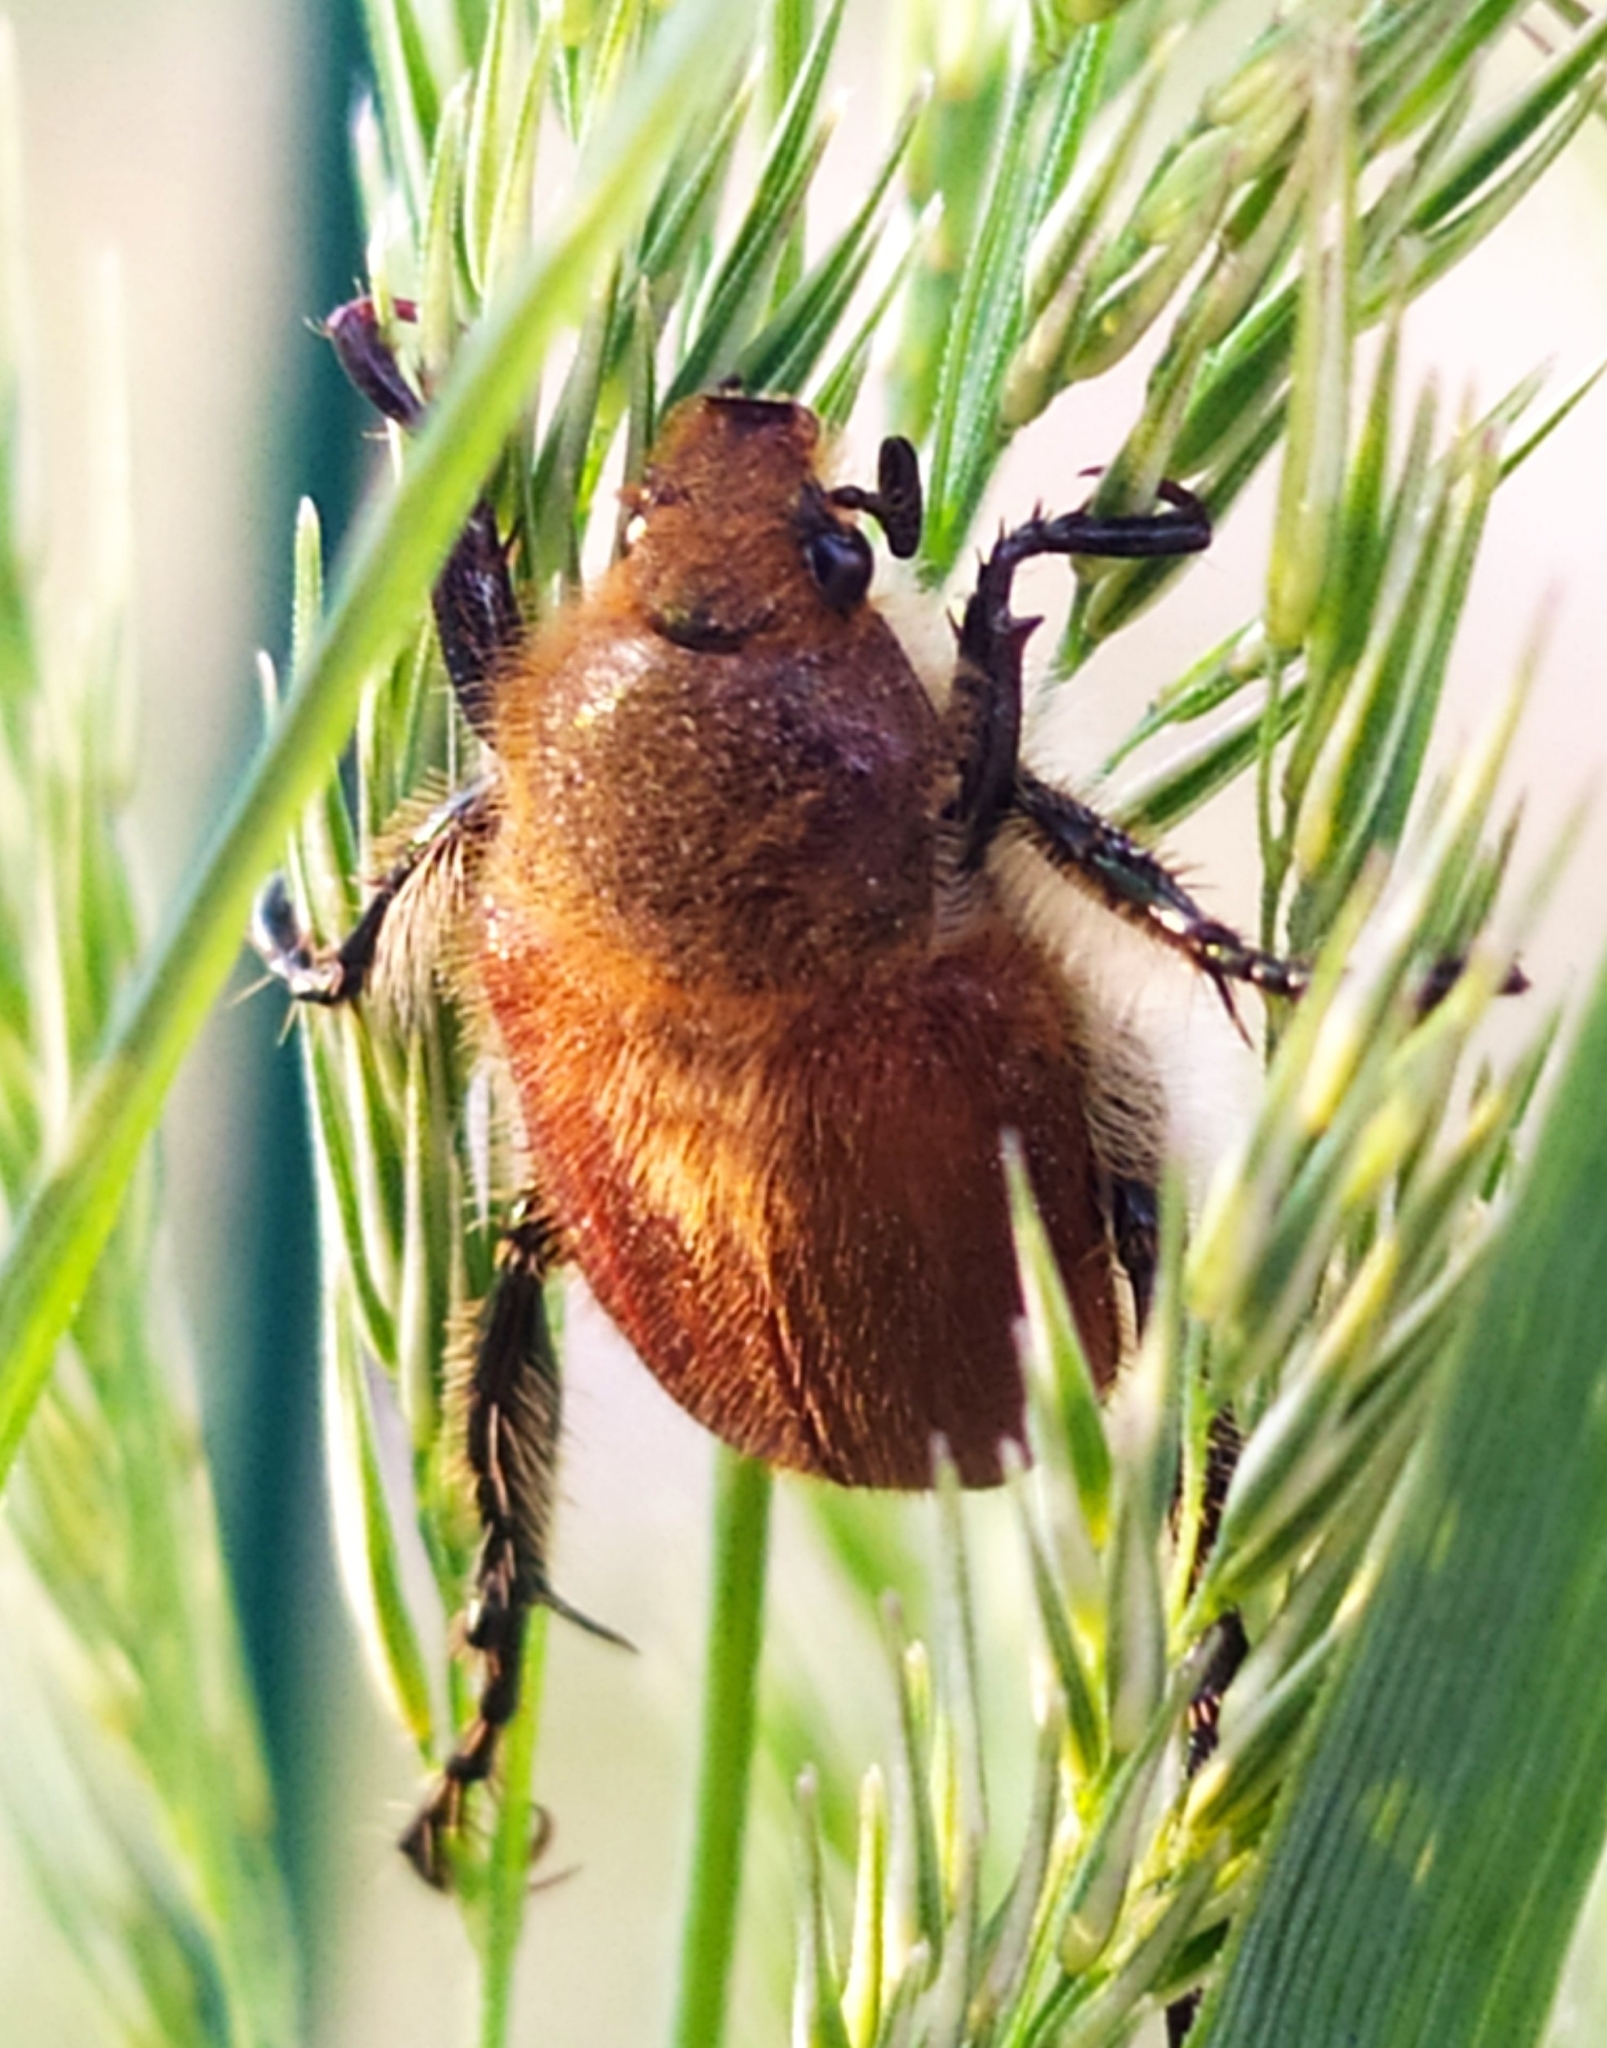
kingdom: Animalia
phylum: Arthropoda
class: Insecta
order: Coleoptera
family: Scarabaeidae
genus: Chaetopteroplia
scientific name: Chaetopteroplia segetum
